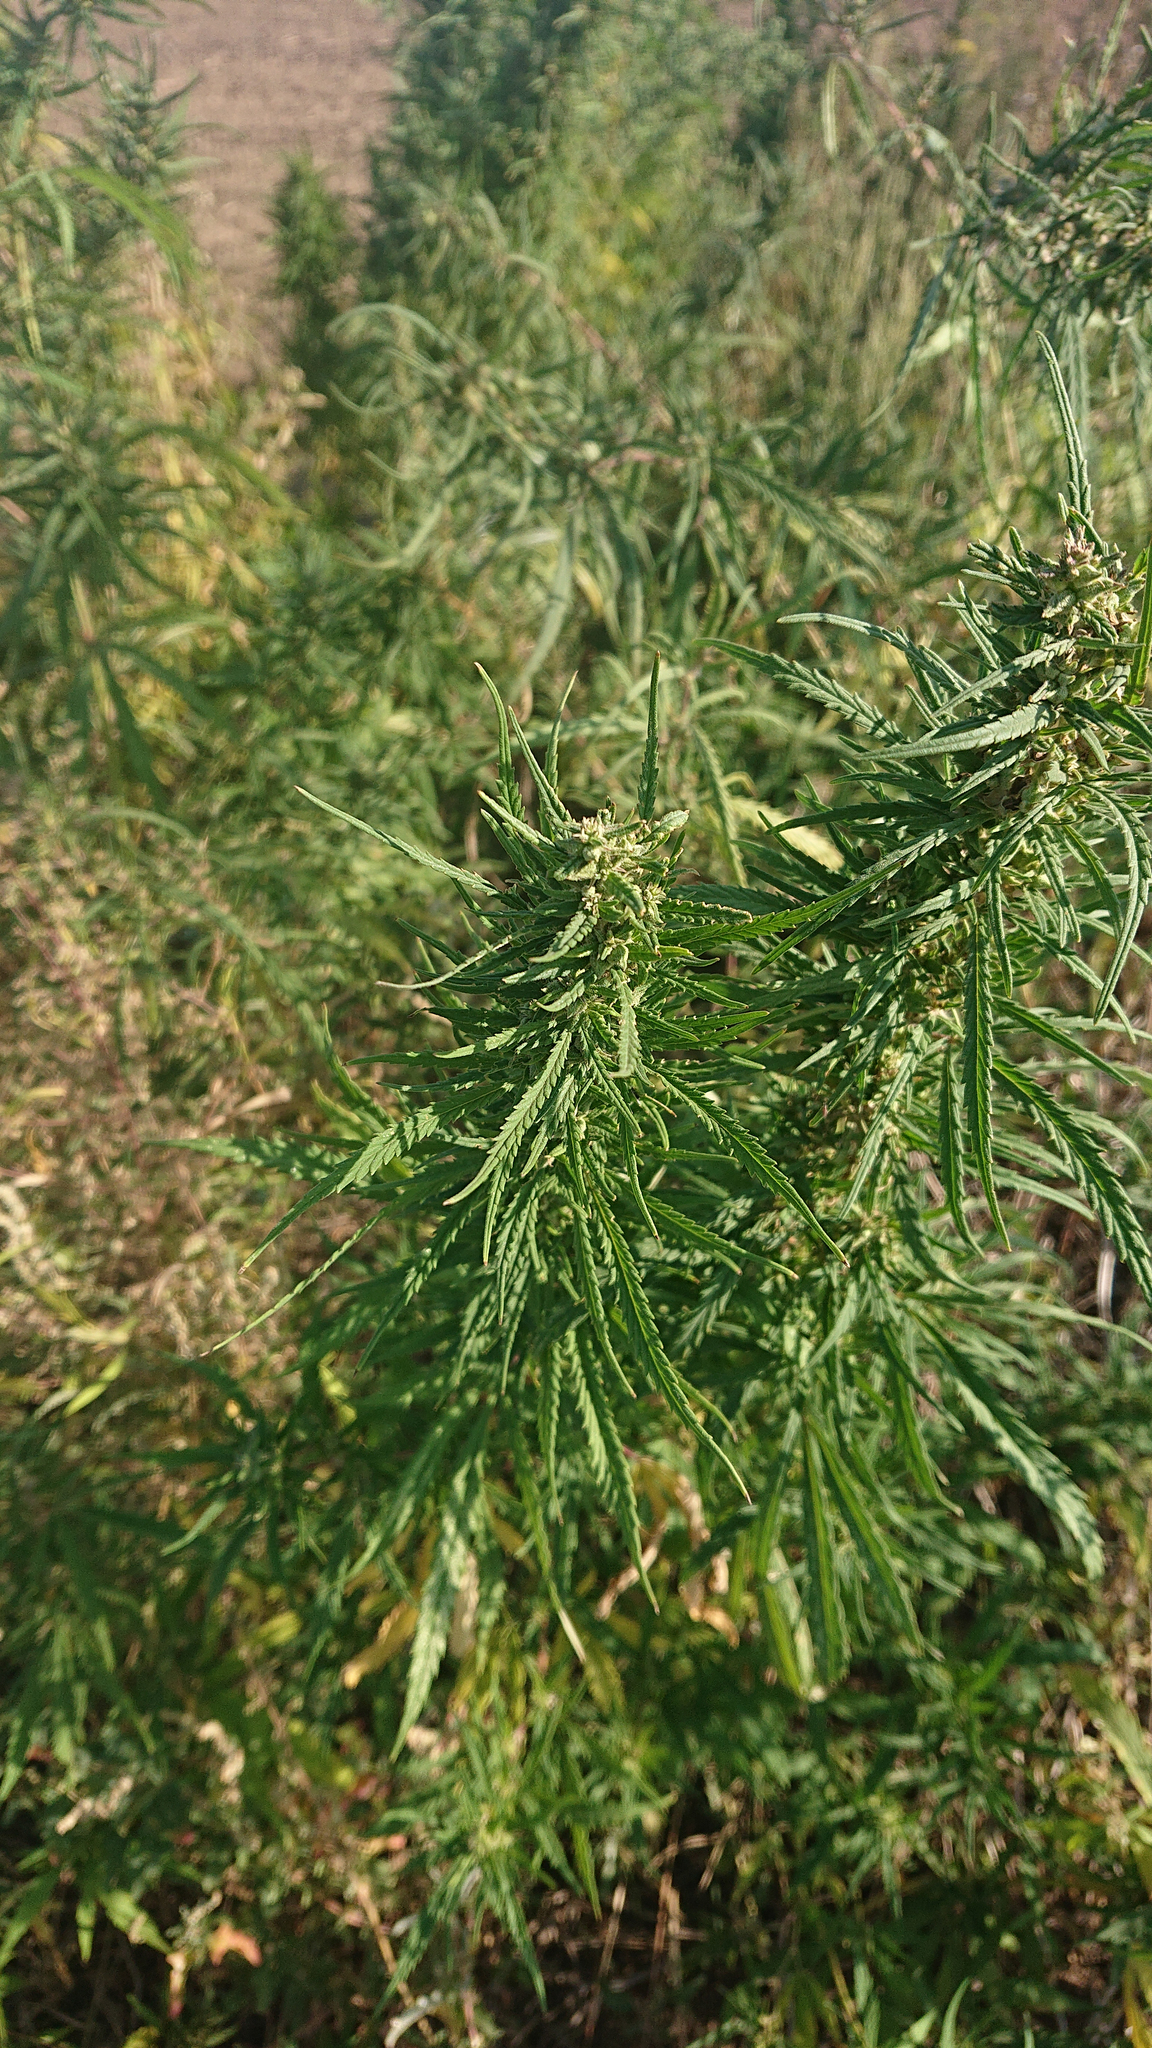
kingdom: Plantae
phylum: Tracheophyta
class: Magnoliopsida
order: Rosales
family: Cannabaceae
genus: Cannabis
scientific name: Cannabis sativa
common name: Hemp
